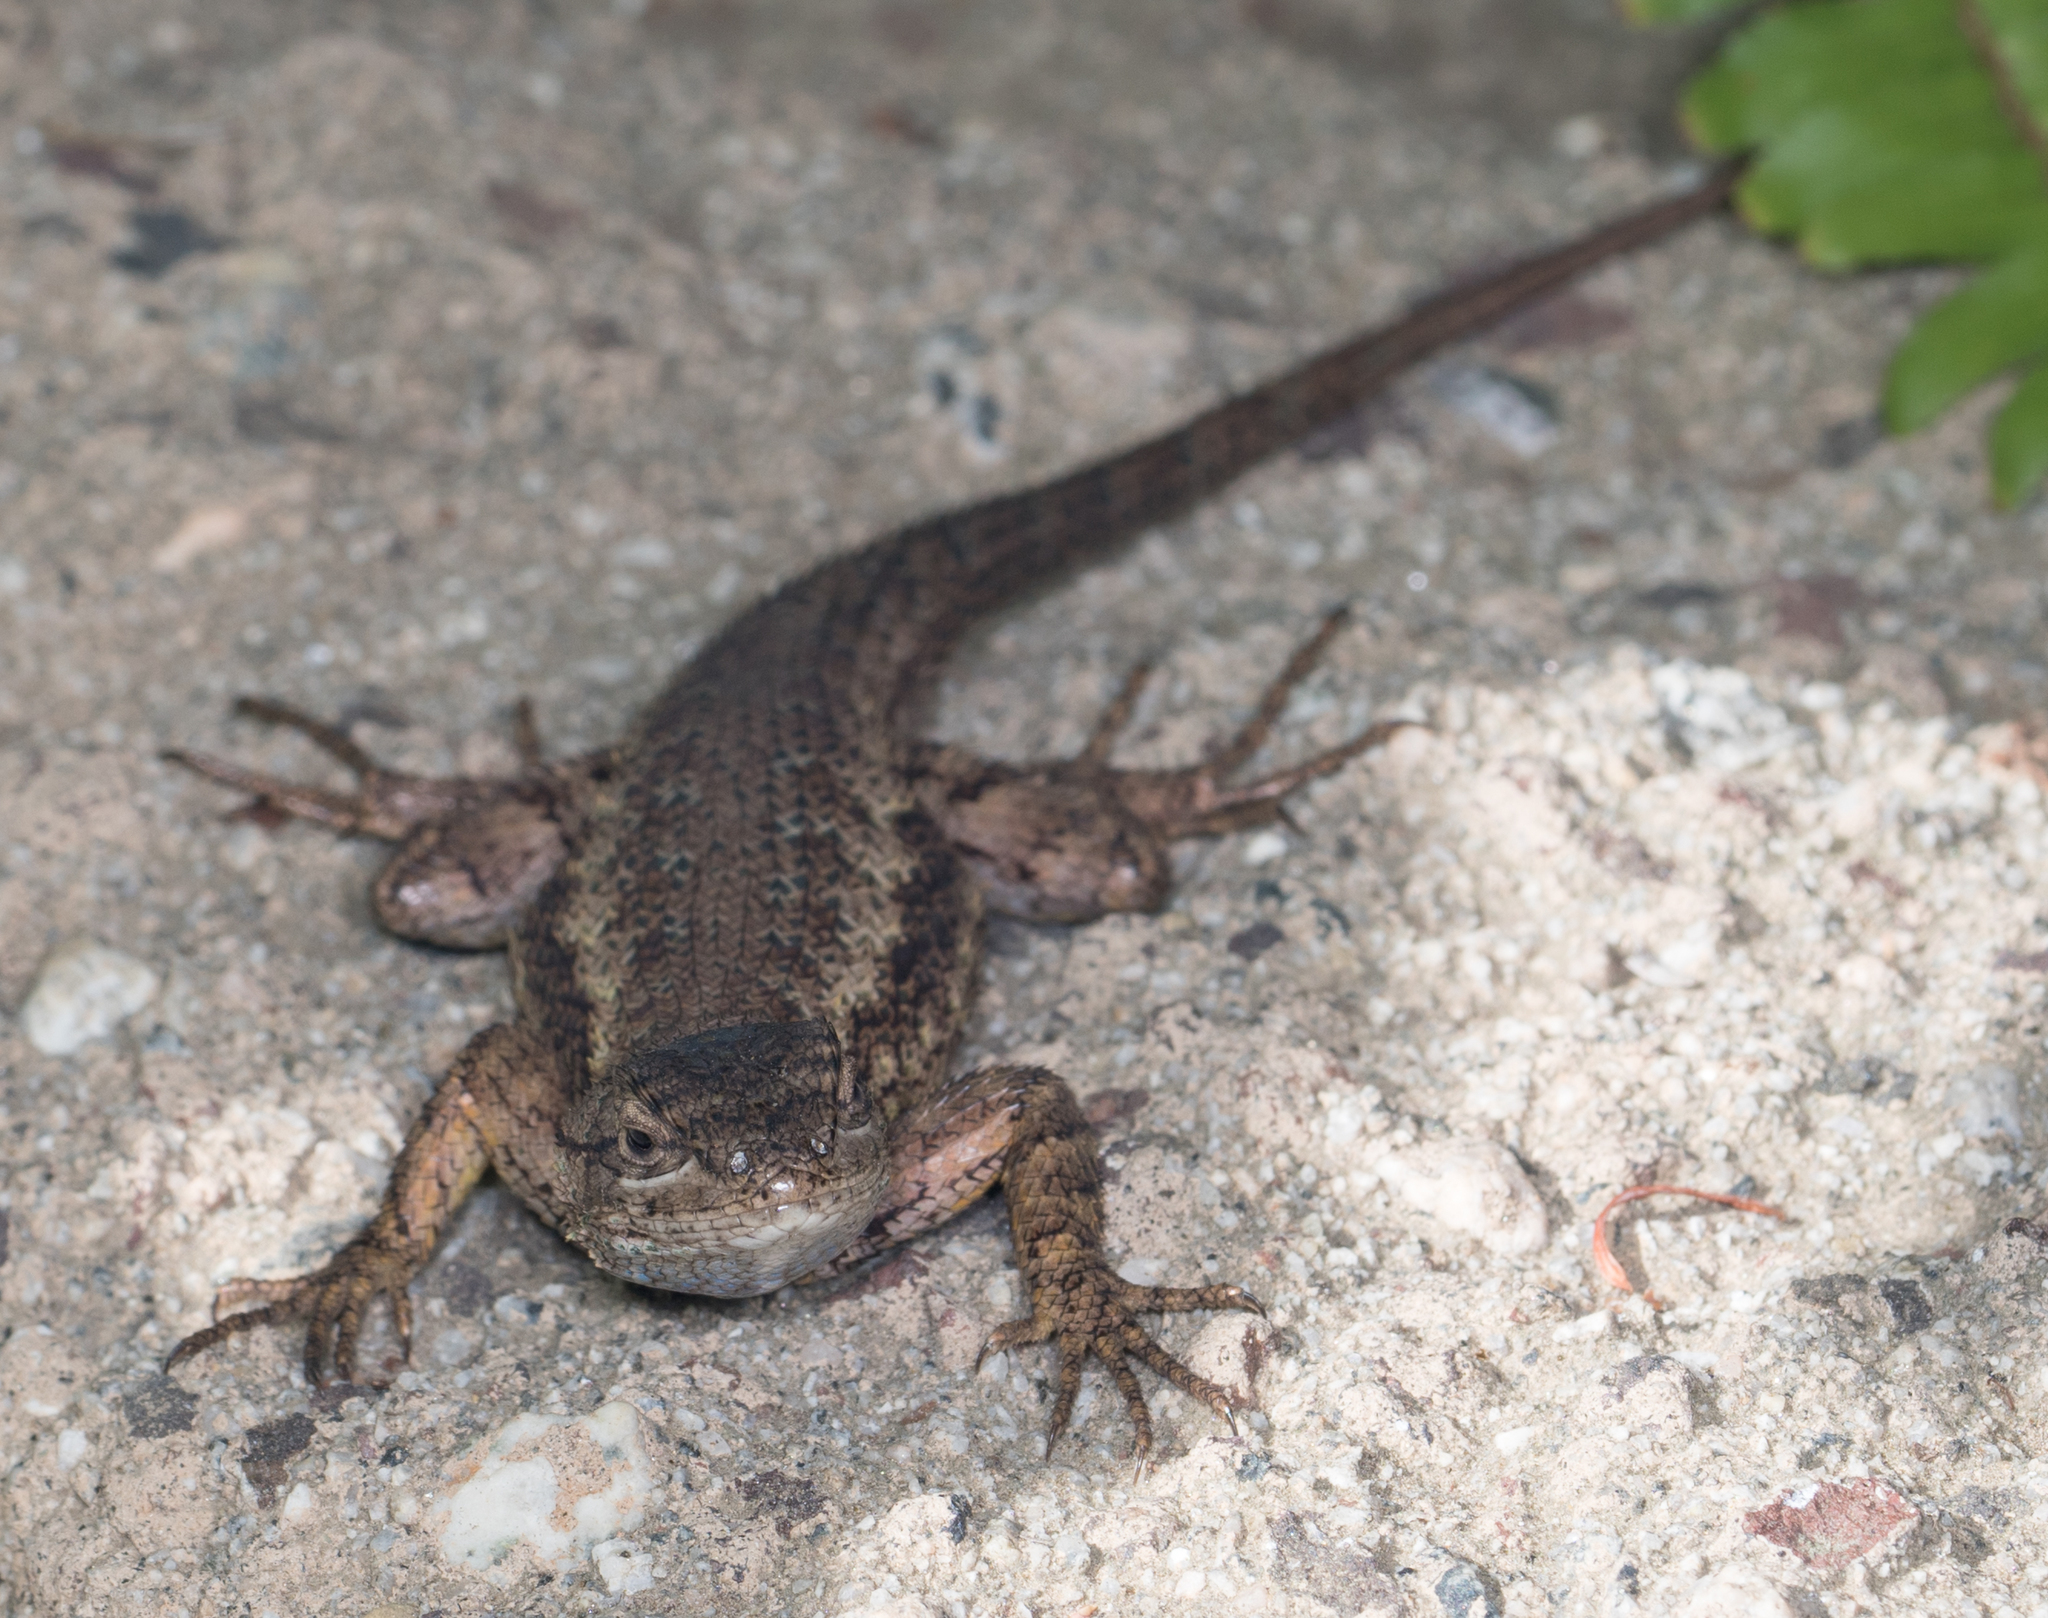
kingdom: Animalia
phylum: Chordata
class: Squamata
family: Phrynosomatidae
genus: Sceloporus
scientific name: Sceloporus occidentalis
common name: Western fence lizard
